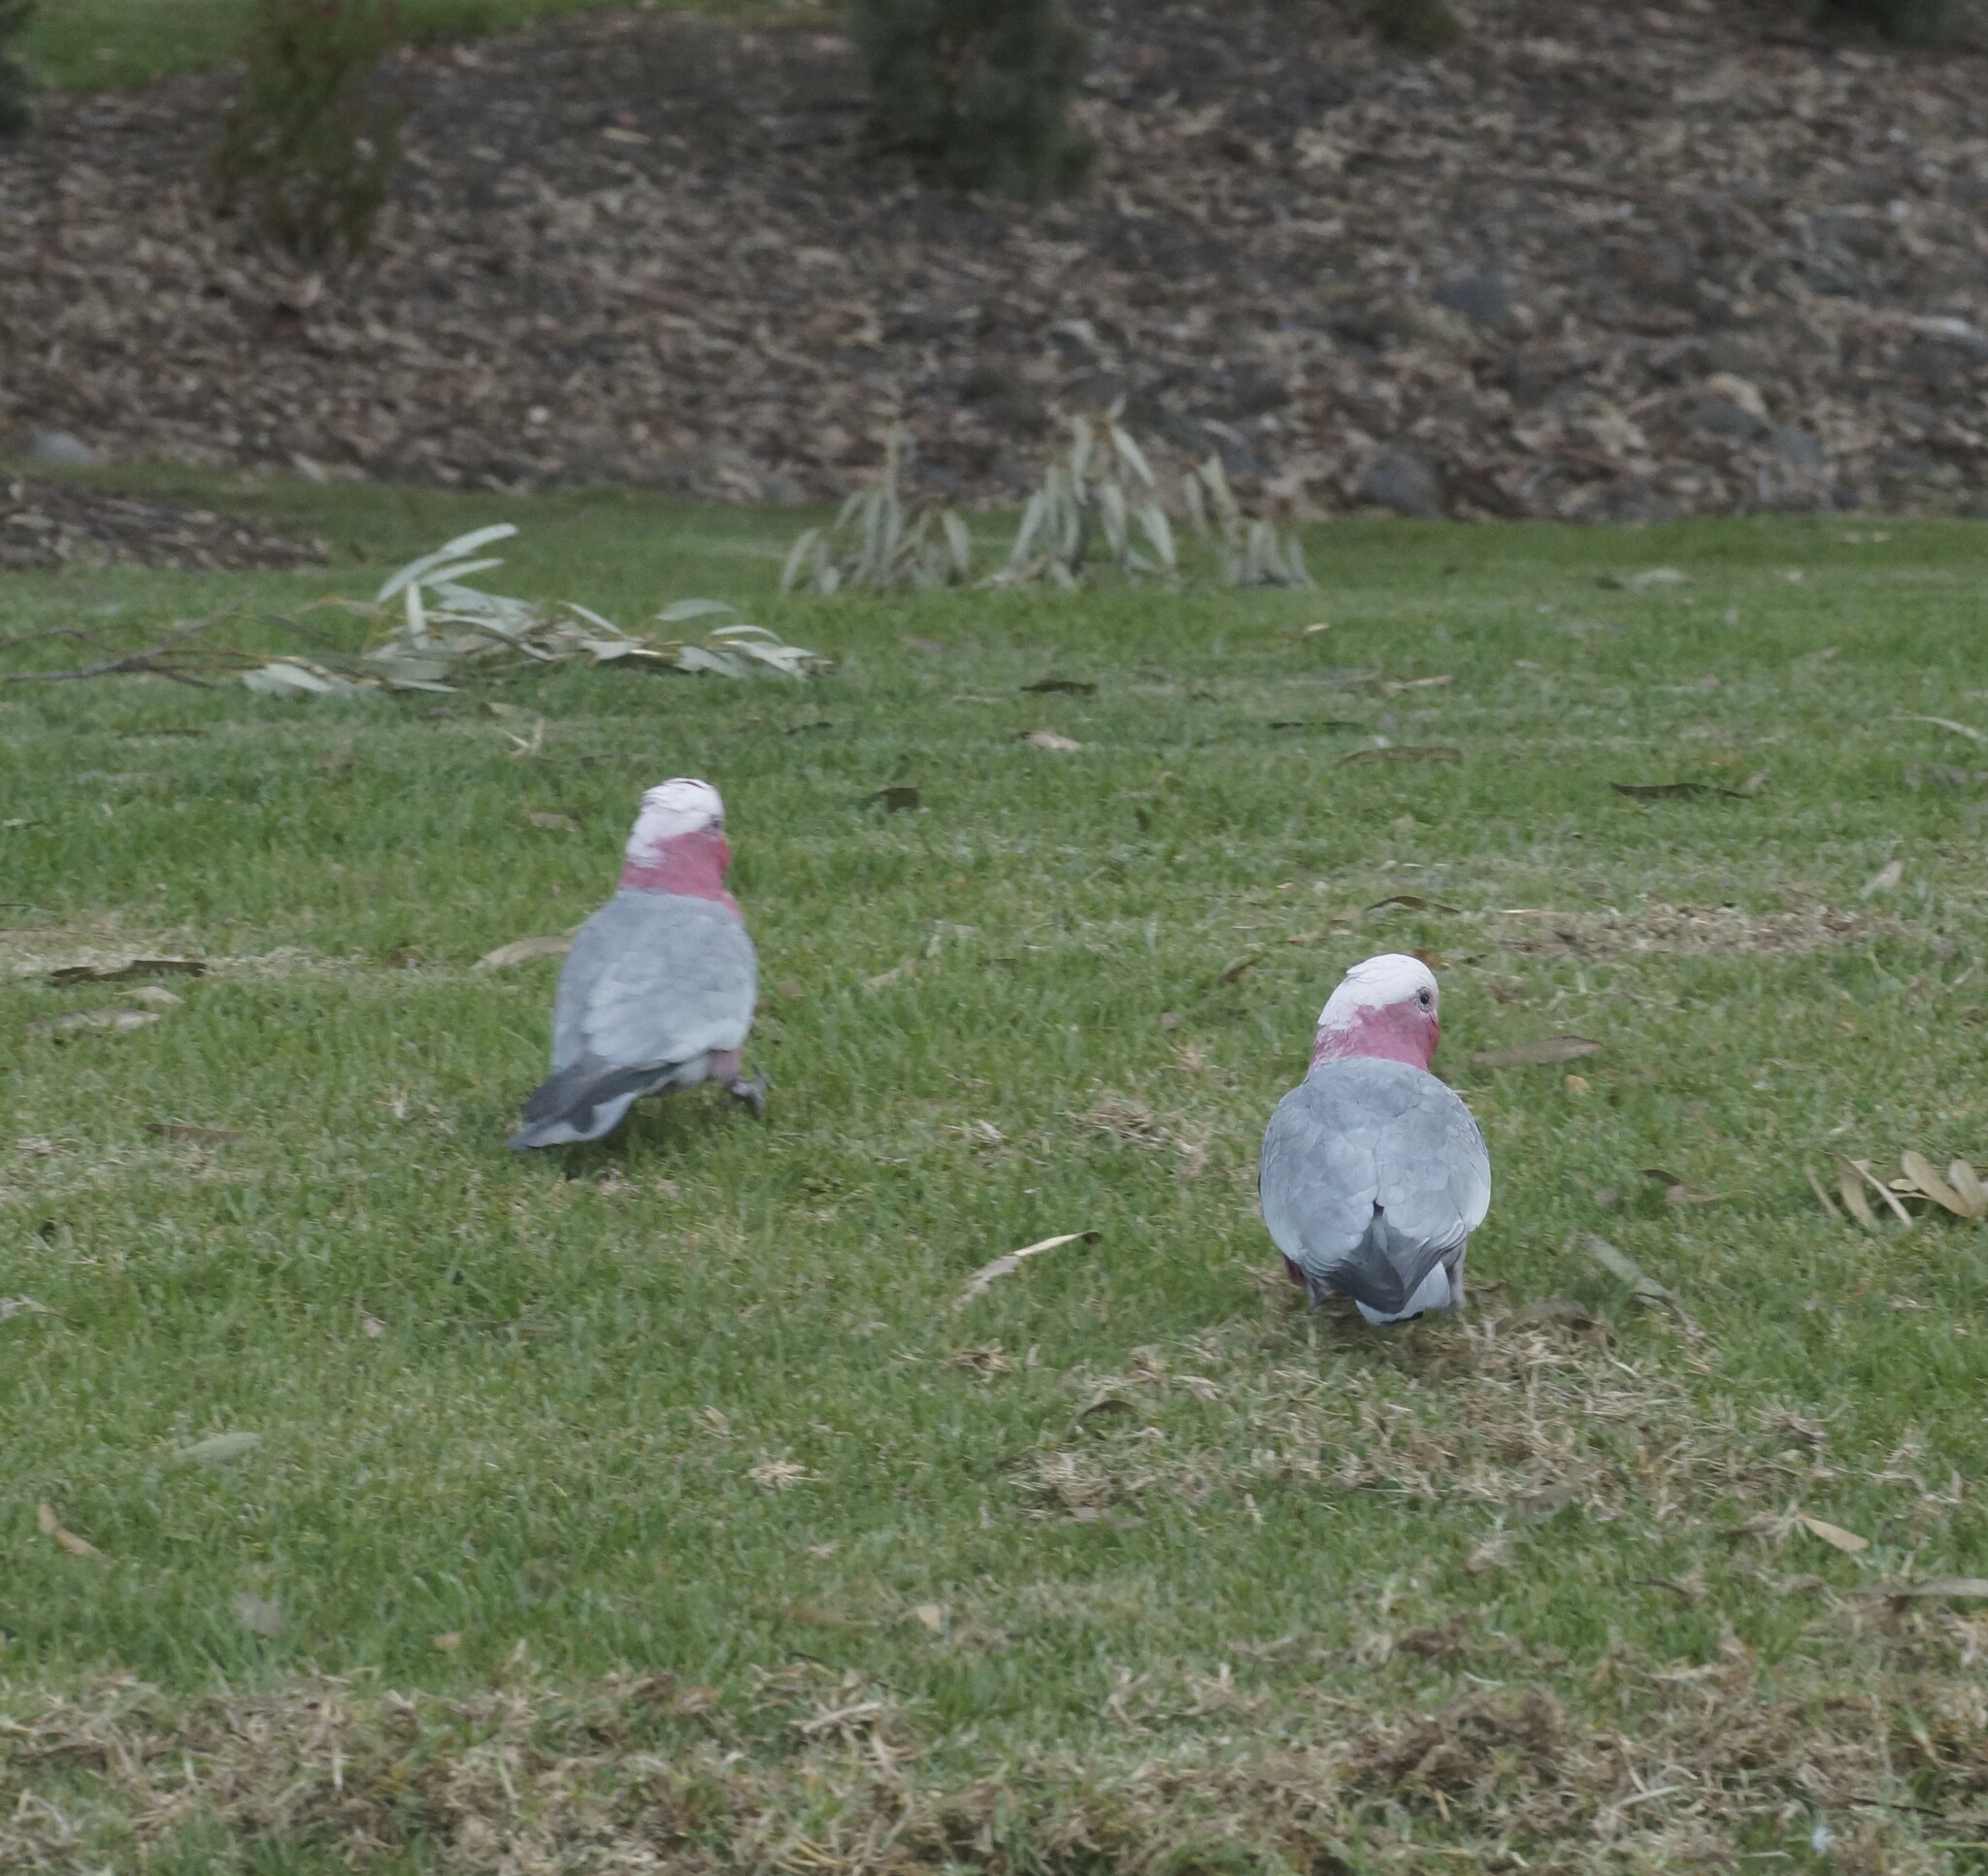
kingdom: Animalia
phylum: Chordata
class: Aves
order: Psittaciformes
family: Psittacidae
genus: Eolophus
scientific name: Eolophus roseicapilla
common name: Galah
